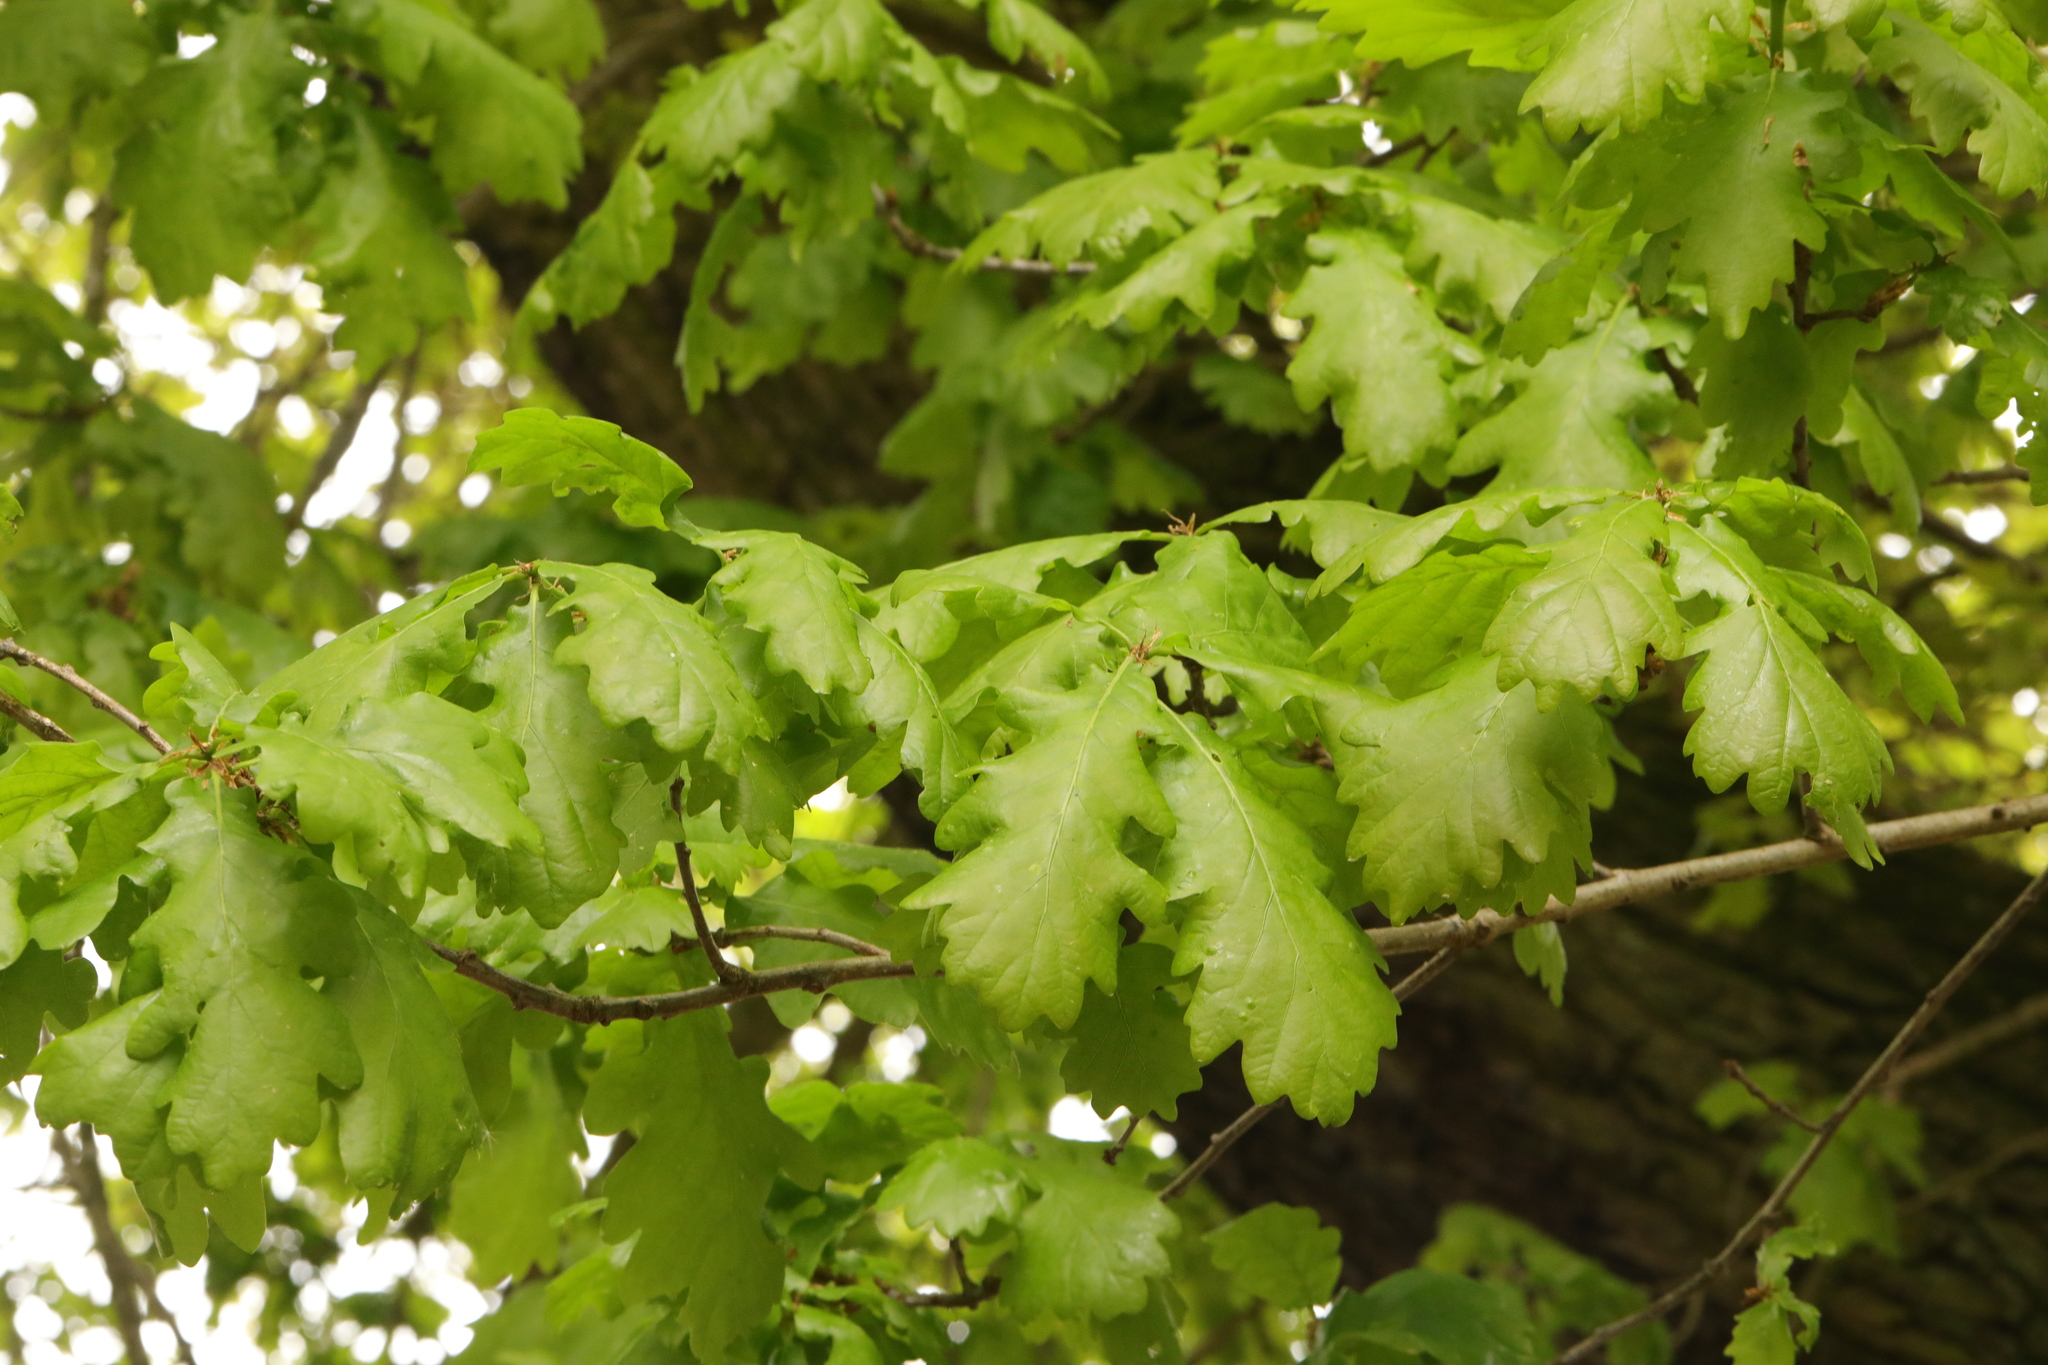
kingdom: Plantae
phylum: Tracheophyta
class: Magnoliopsida
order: Fagales
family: Fagaceae
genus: Quercus
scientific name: Quercus robur
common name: Pedunculate oak
